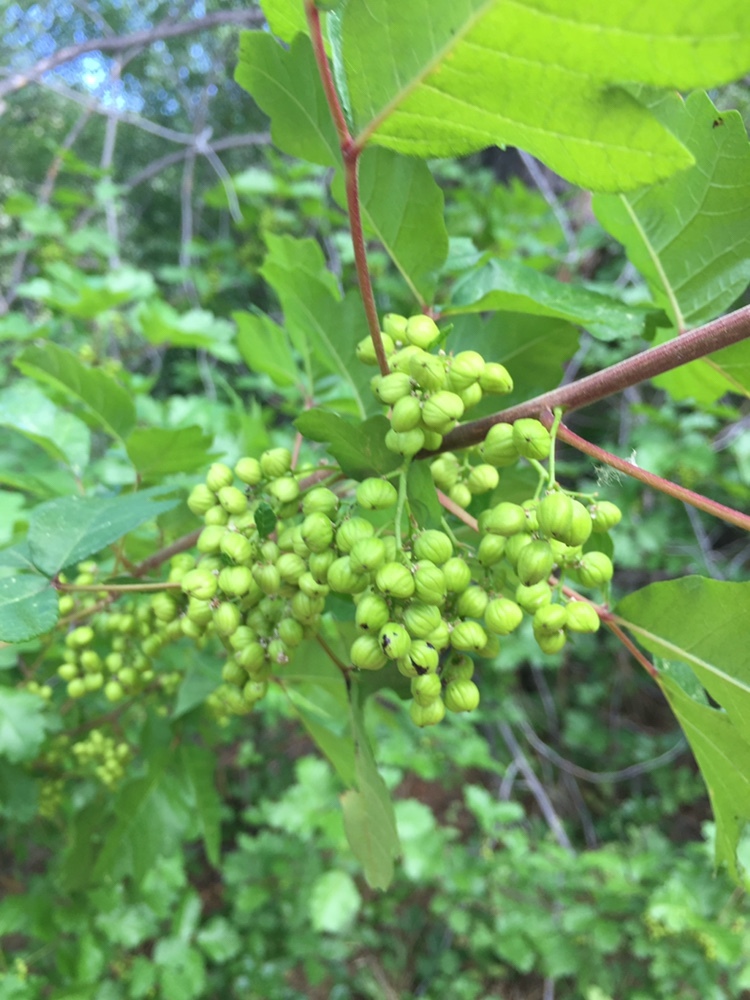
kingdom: Plantae
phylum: Tracheophyta
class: Magnoliopsida
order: Sapindales
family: Anacardiaceae
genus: Toxicodendron
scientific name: Toxicodendron diversilobum
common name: Pacific poison-oak
